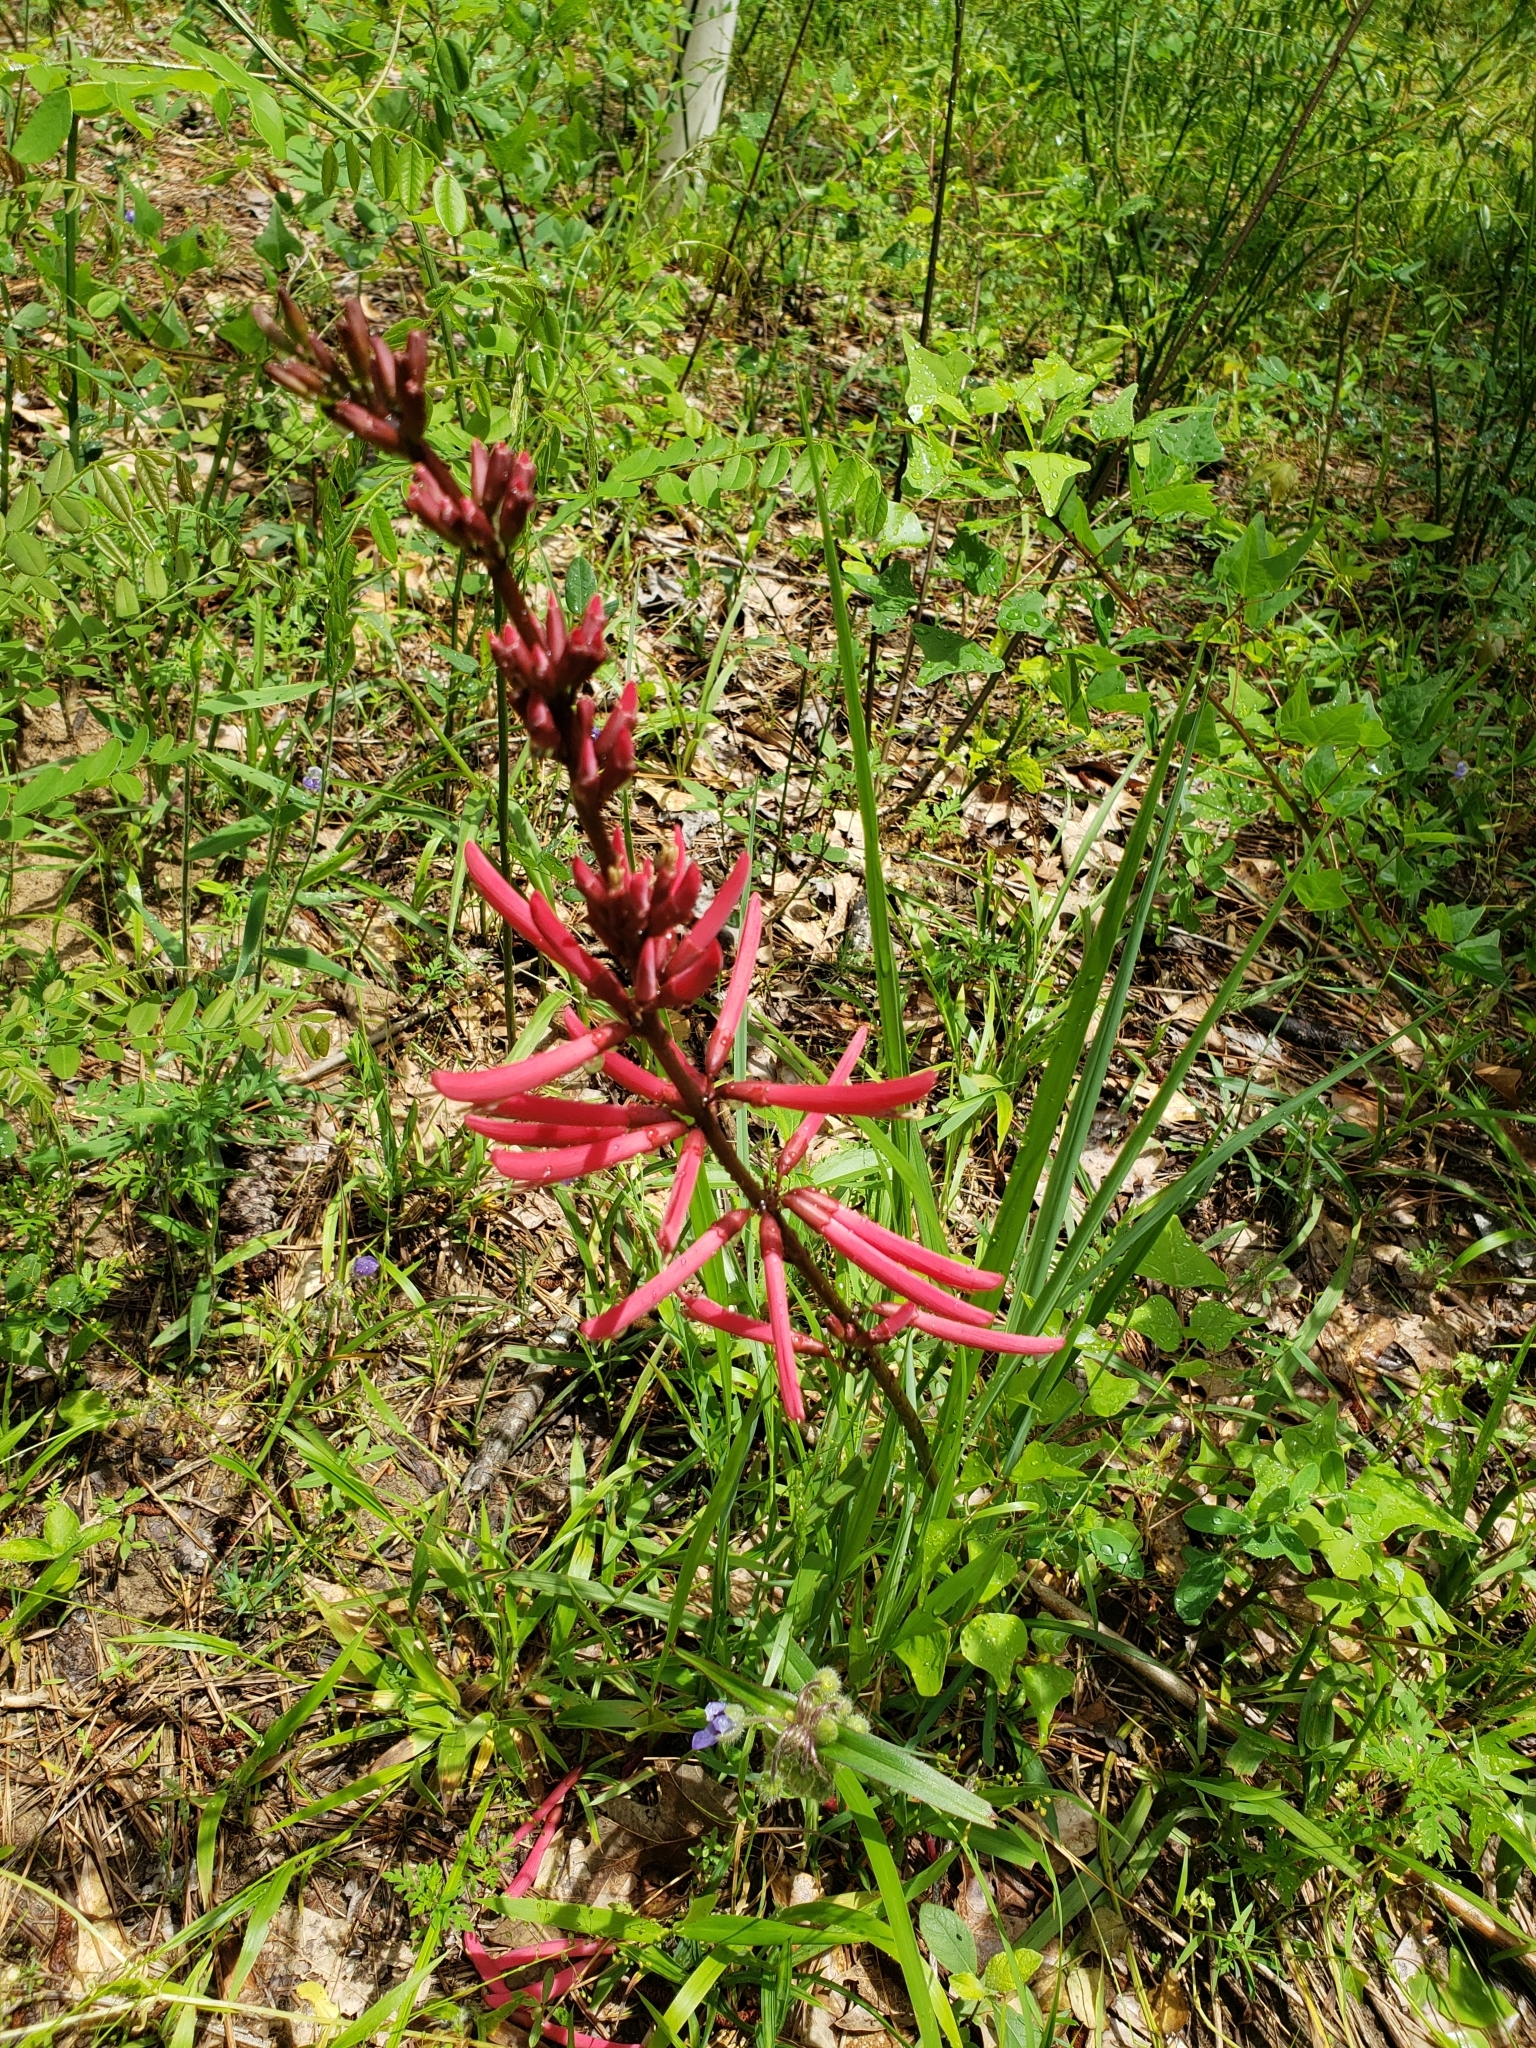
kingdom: Plantae
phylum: Tracheophyta
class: Magnoliopsida
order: Fabales
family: Fabaceae
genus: Erythrina
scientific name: Erythrina herbacea
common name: Coral-bean
